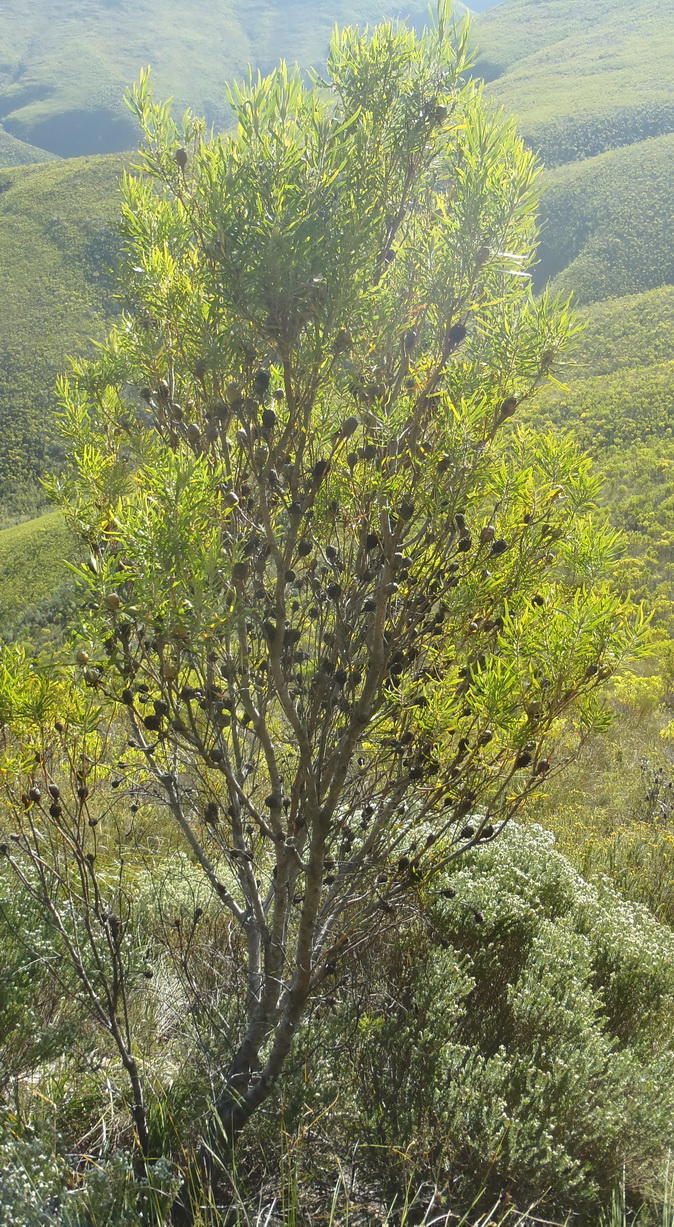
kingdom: Plantae
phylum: Tracheophyta
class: Magnoliopsida
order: Proteales
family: Proteaceae
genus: Leucadendron
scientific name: Leucadendron eucalyptifolium
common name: Gum-leaved conebush
